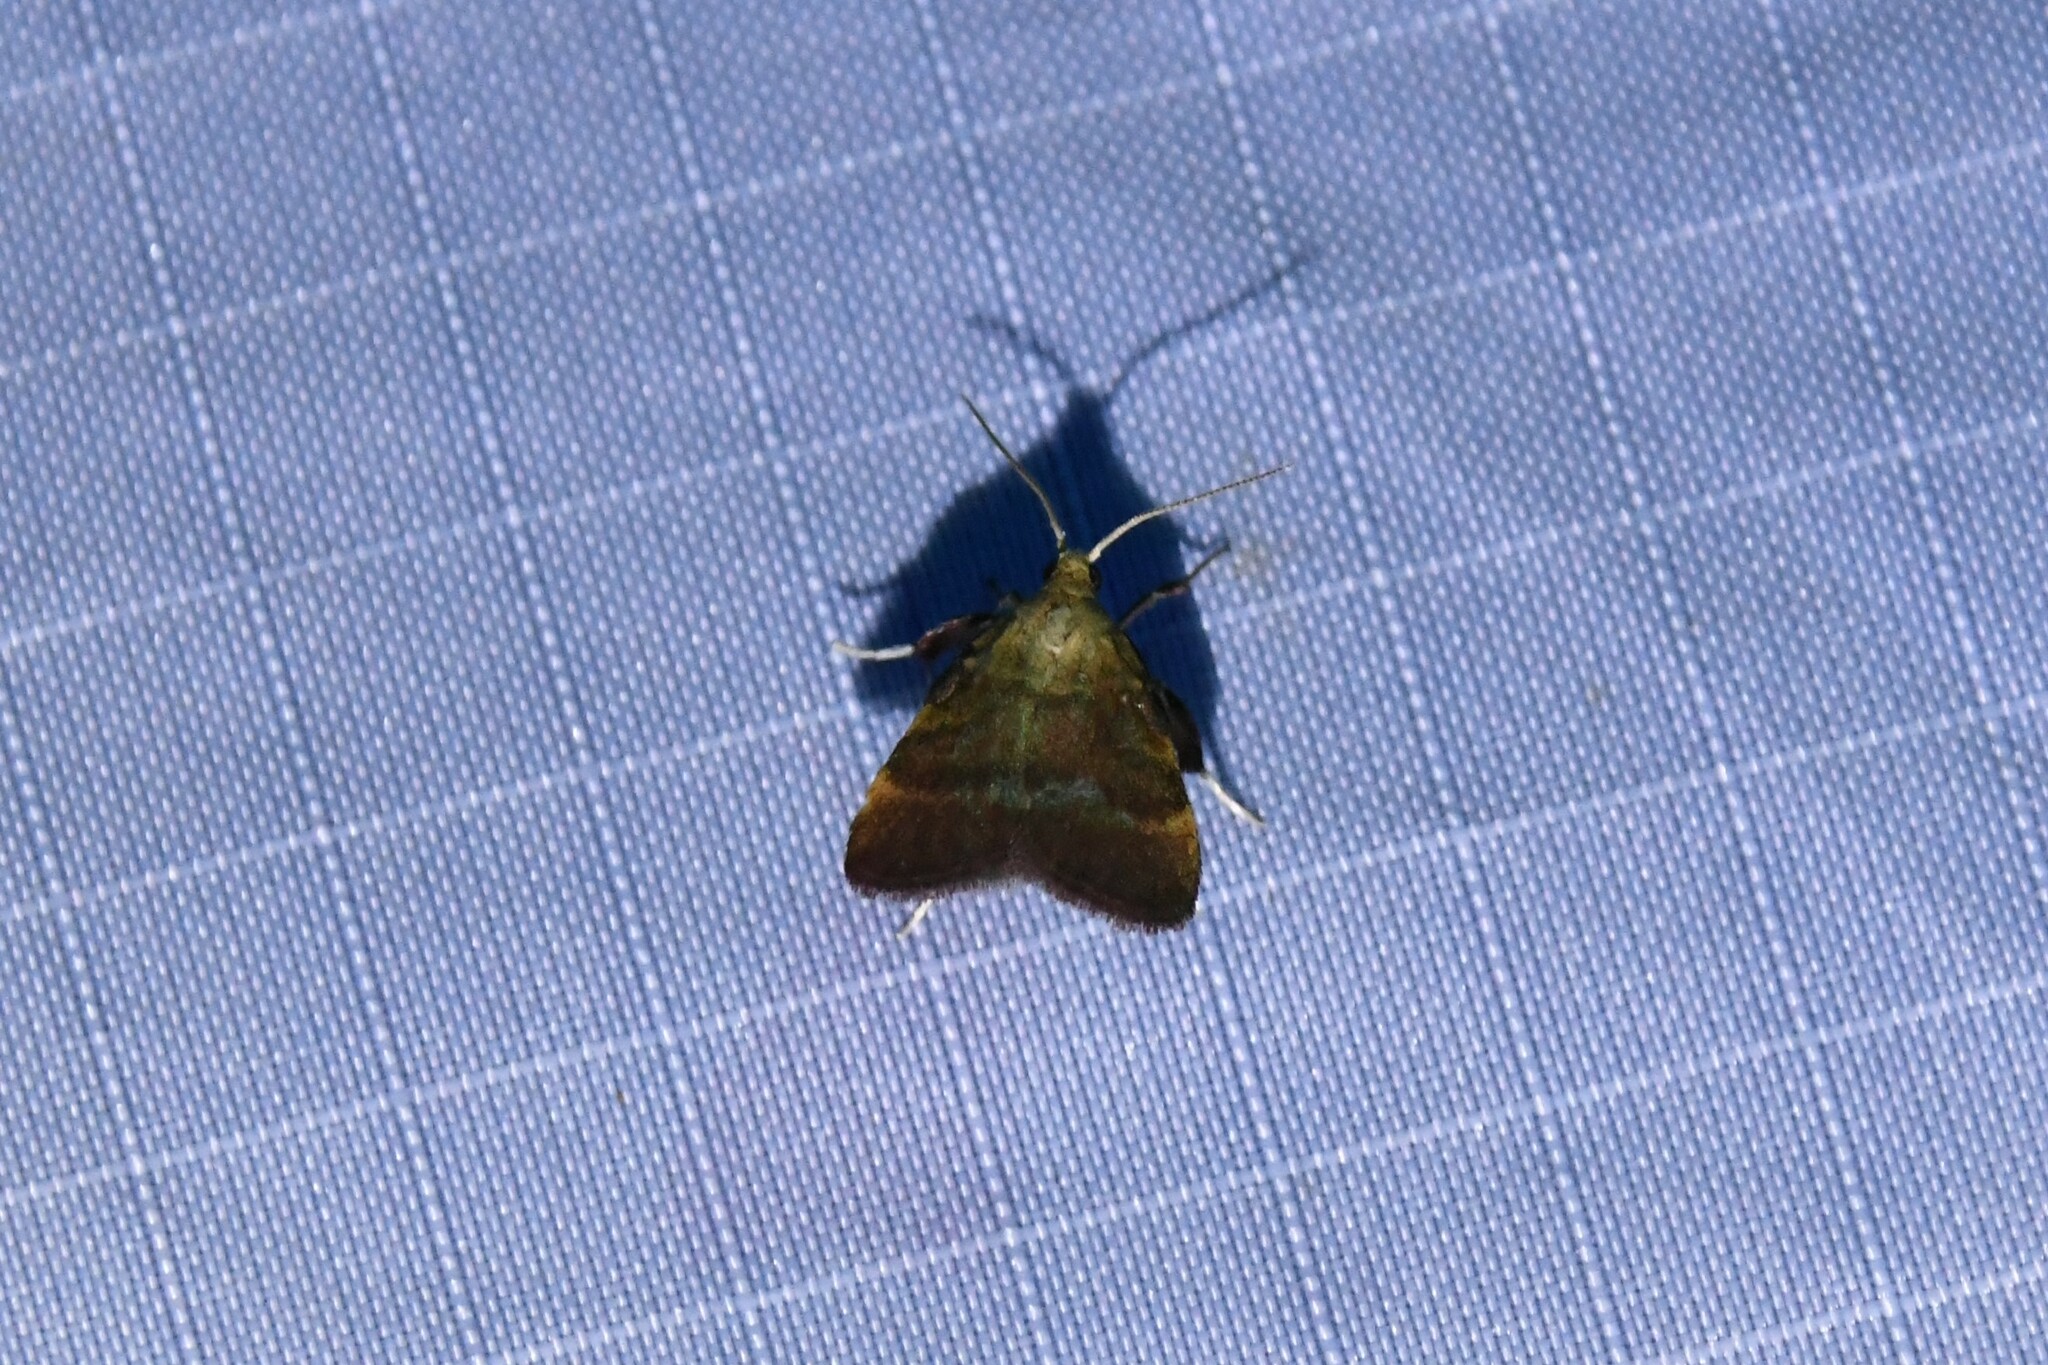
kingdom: Animalia
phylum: Arthropoda
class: Insecta
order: Lepidoptera
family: Pyralidae
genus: Condylolomia
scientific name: Condylolomia participialis
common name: Drab condylolomia moth
